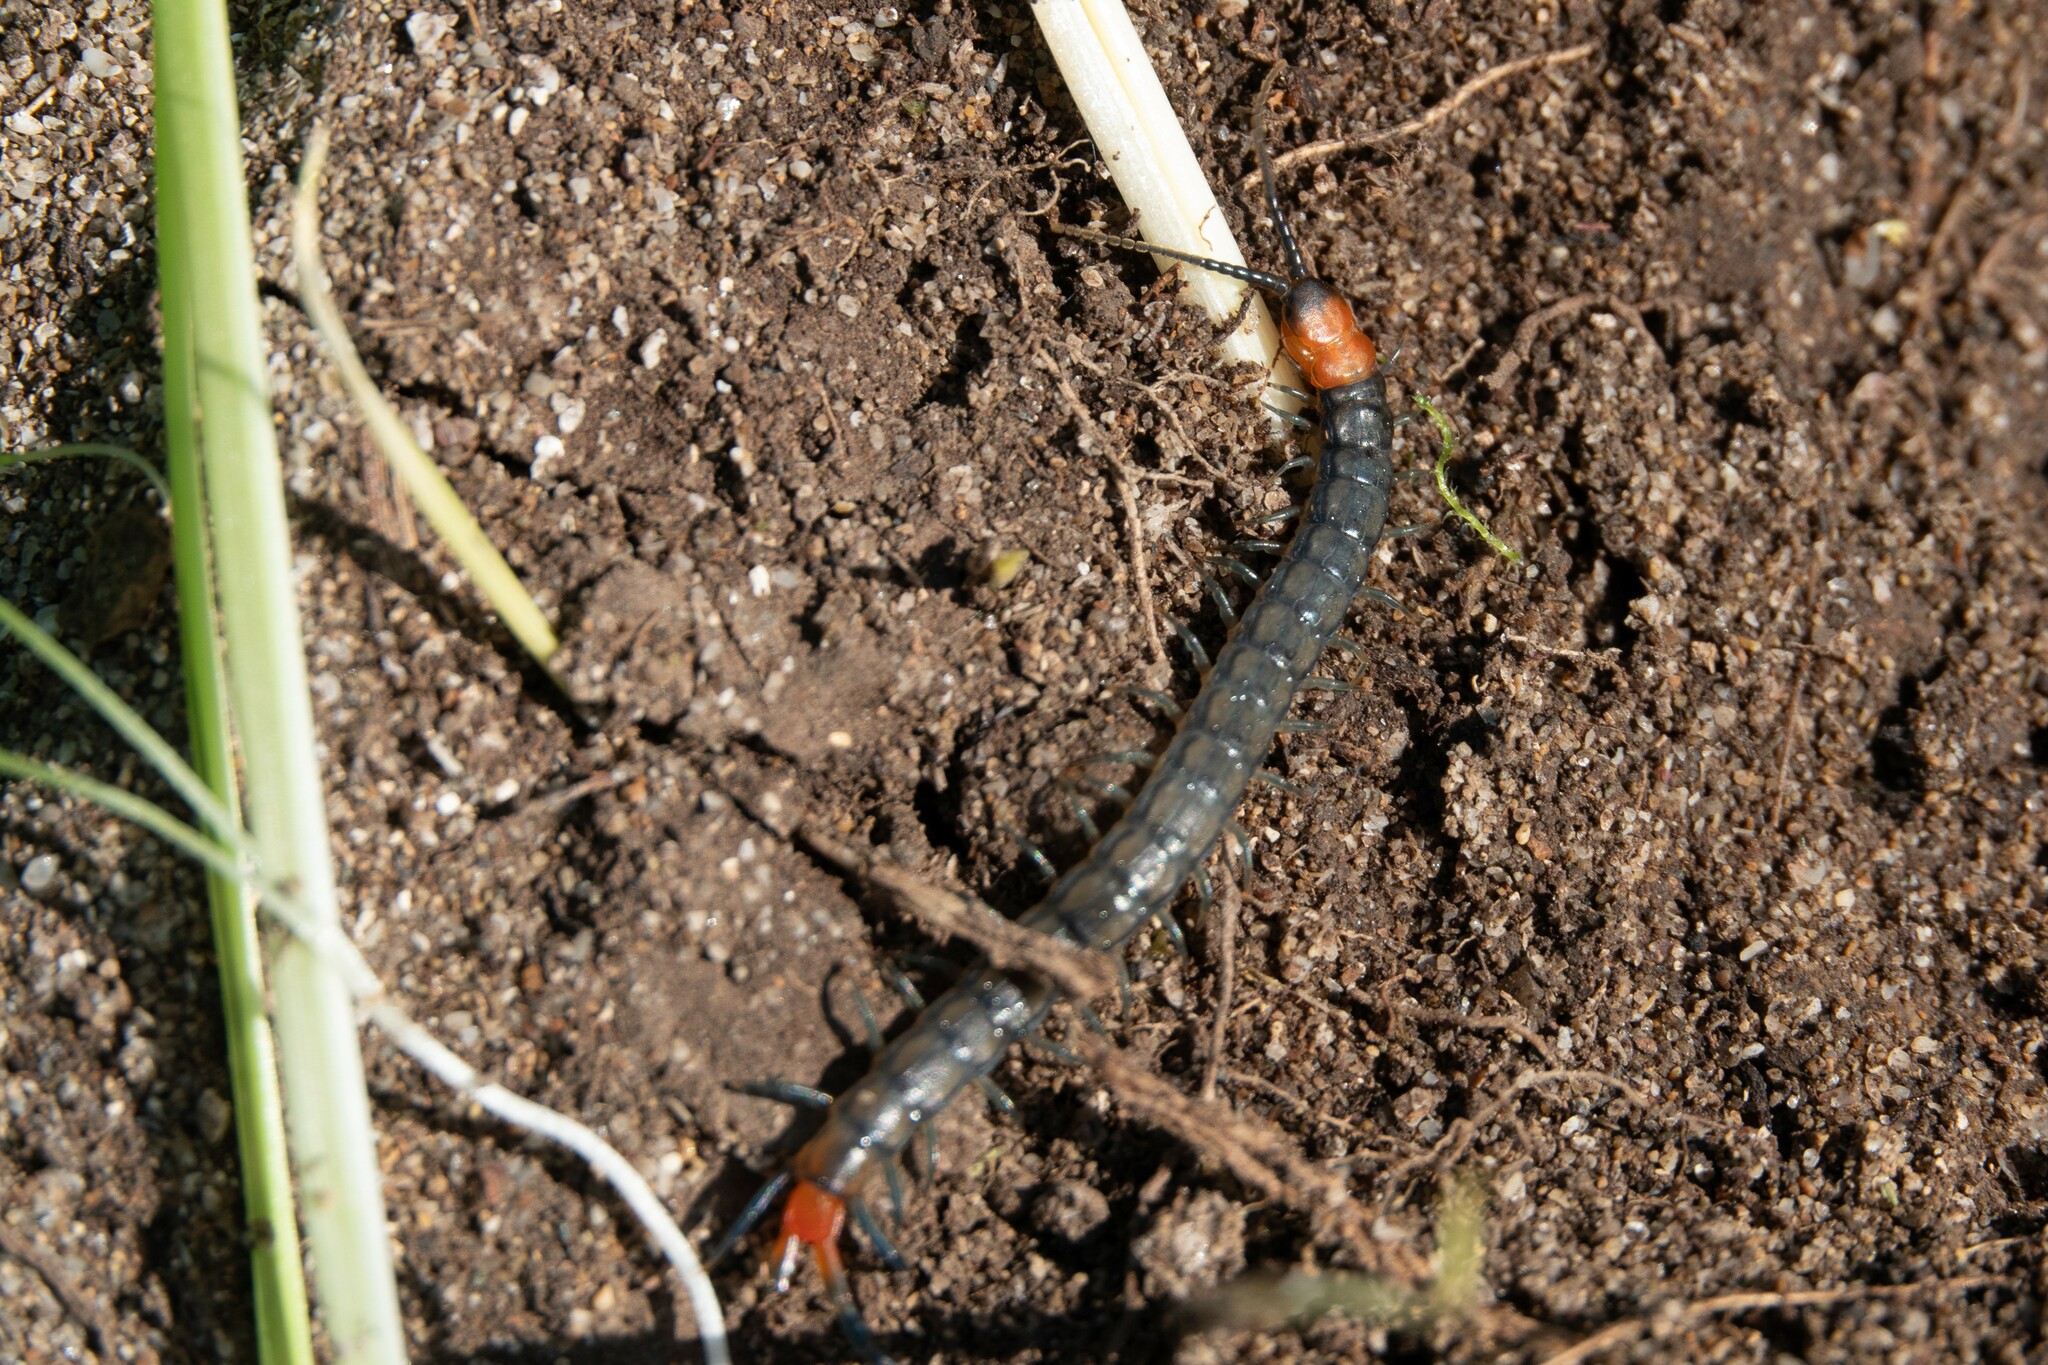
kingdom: Animalia
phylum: Arthropoda
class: Chilopoda
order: Scolopendromorpha
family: Scolopendridae
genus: Scolopendra
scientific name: Scolopendra cingulata
